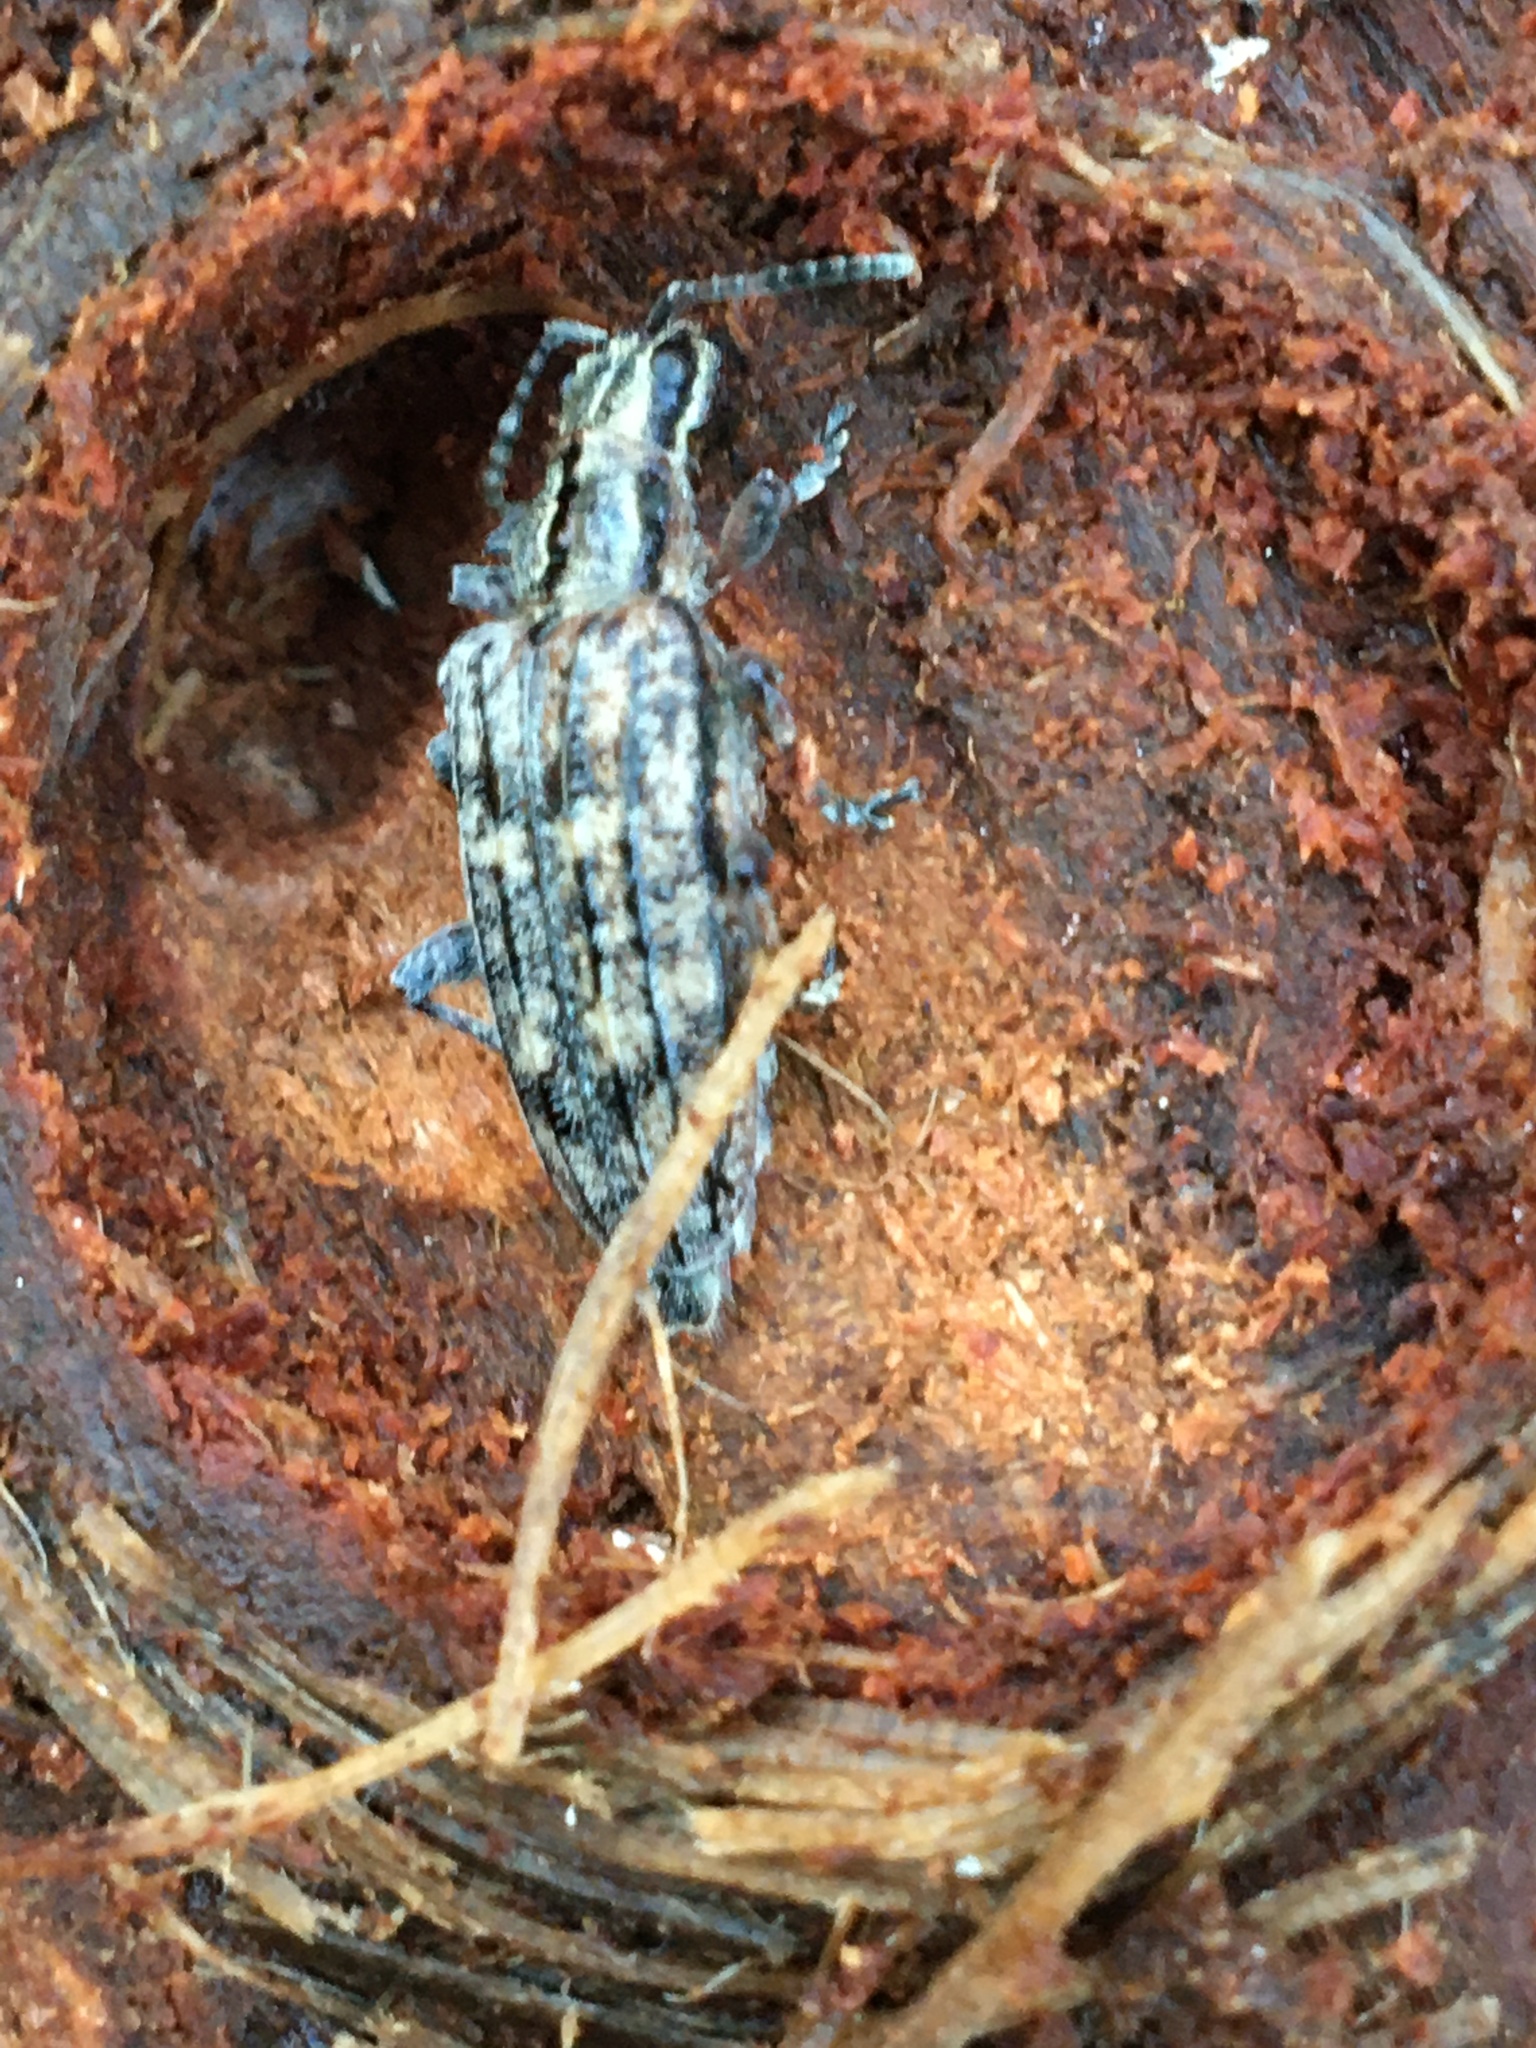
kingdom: Animalia
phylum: Arthropoda
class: Insecta
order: Coleoptera
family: Cerambycidae
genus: Rhagium
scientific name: Rhagium inquisitor
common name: Ribbed pine borer
